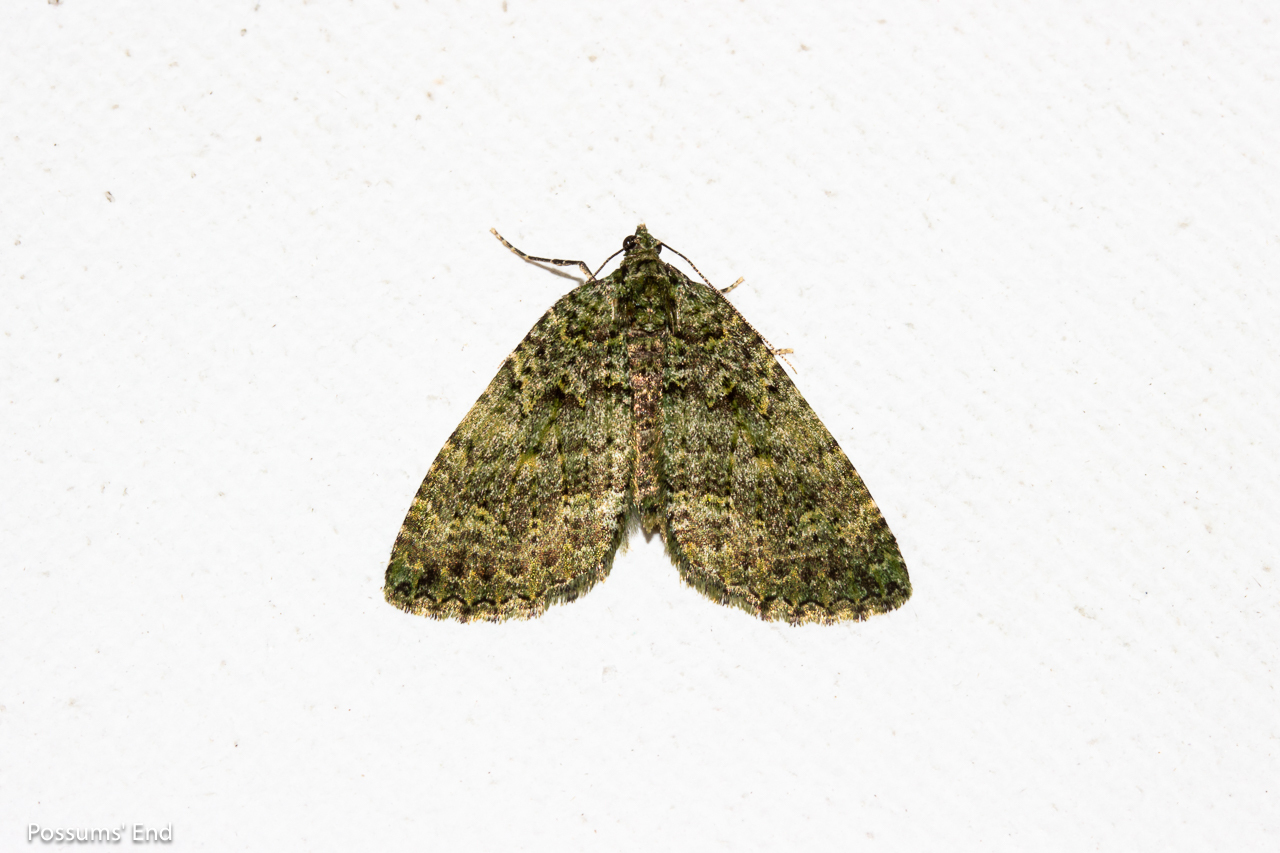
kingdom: Animalia
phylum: Arthropoda
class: Insecta
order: Lepidoptera
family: Geometridae
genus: Austrocidaria
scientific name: Austrocidaria callichlora
